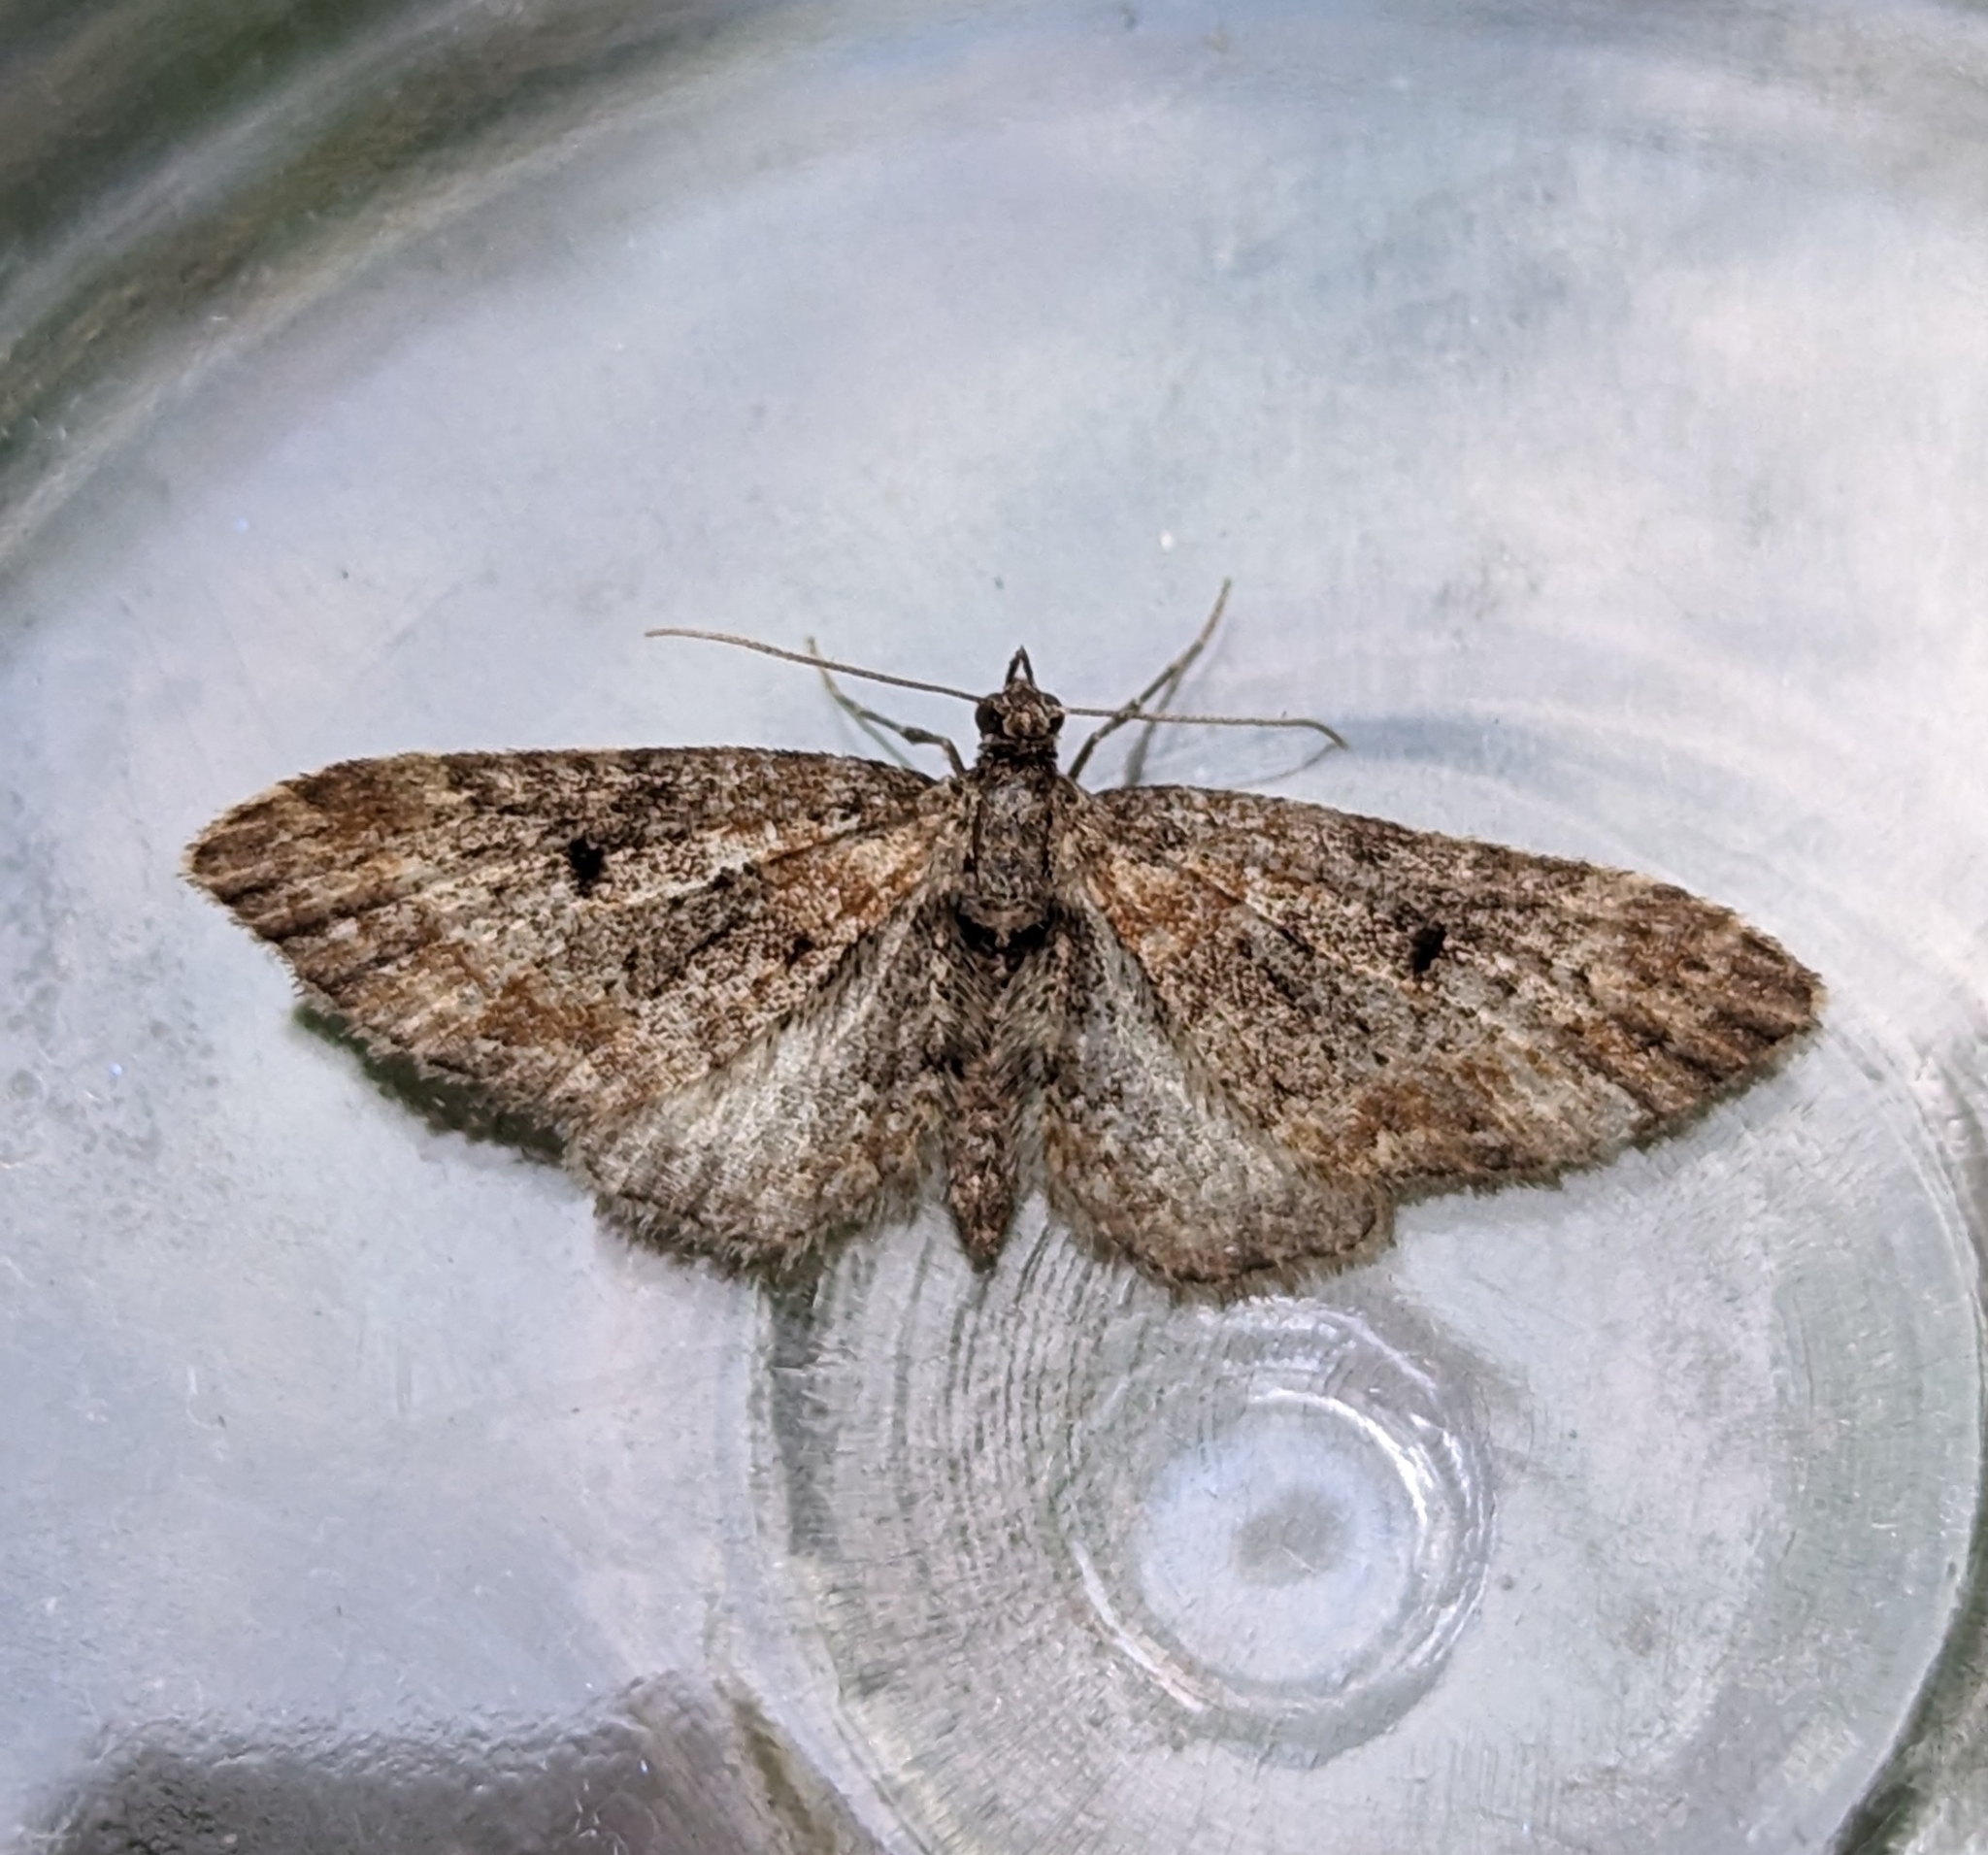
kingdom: Animalia
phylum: Arthropoda
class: Insecta
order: Lepidoptera
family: Geometridae
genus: Eupithecia
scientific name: Eupithecia johnstoni
